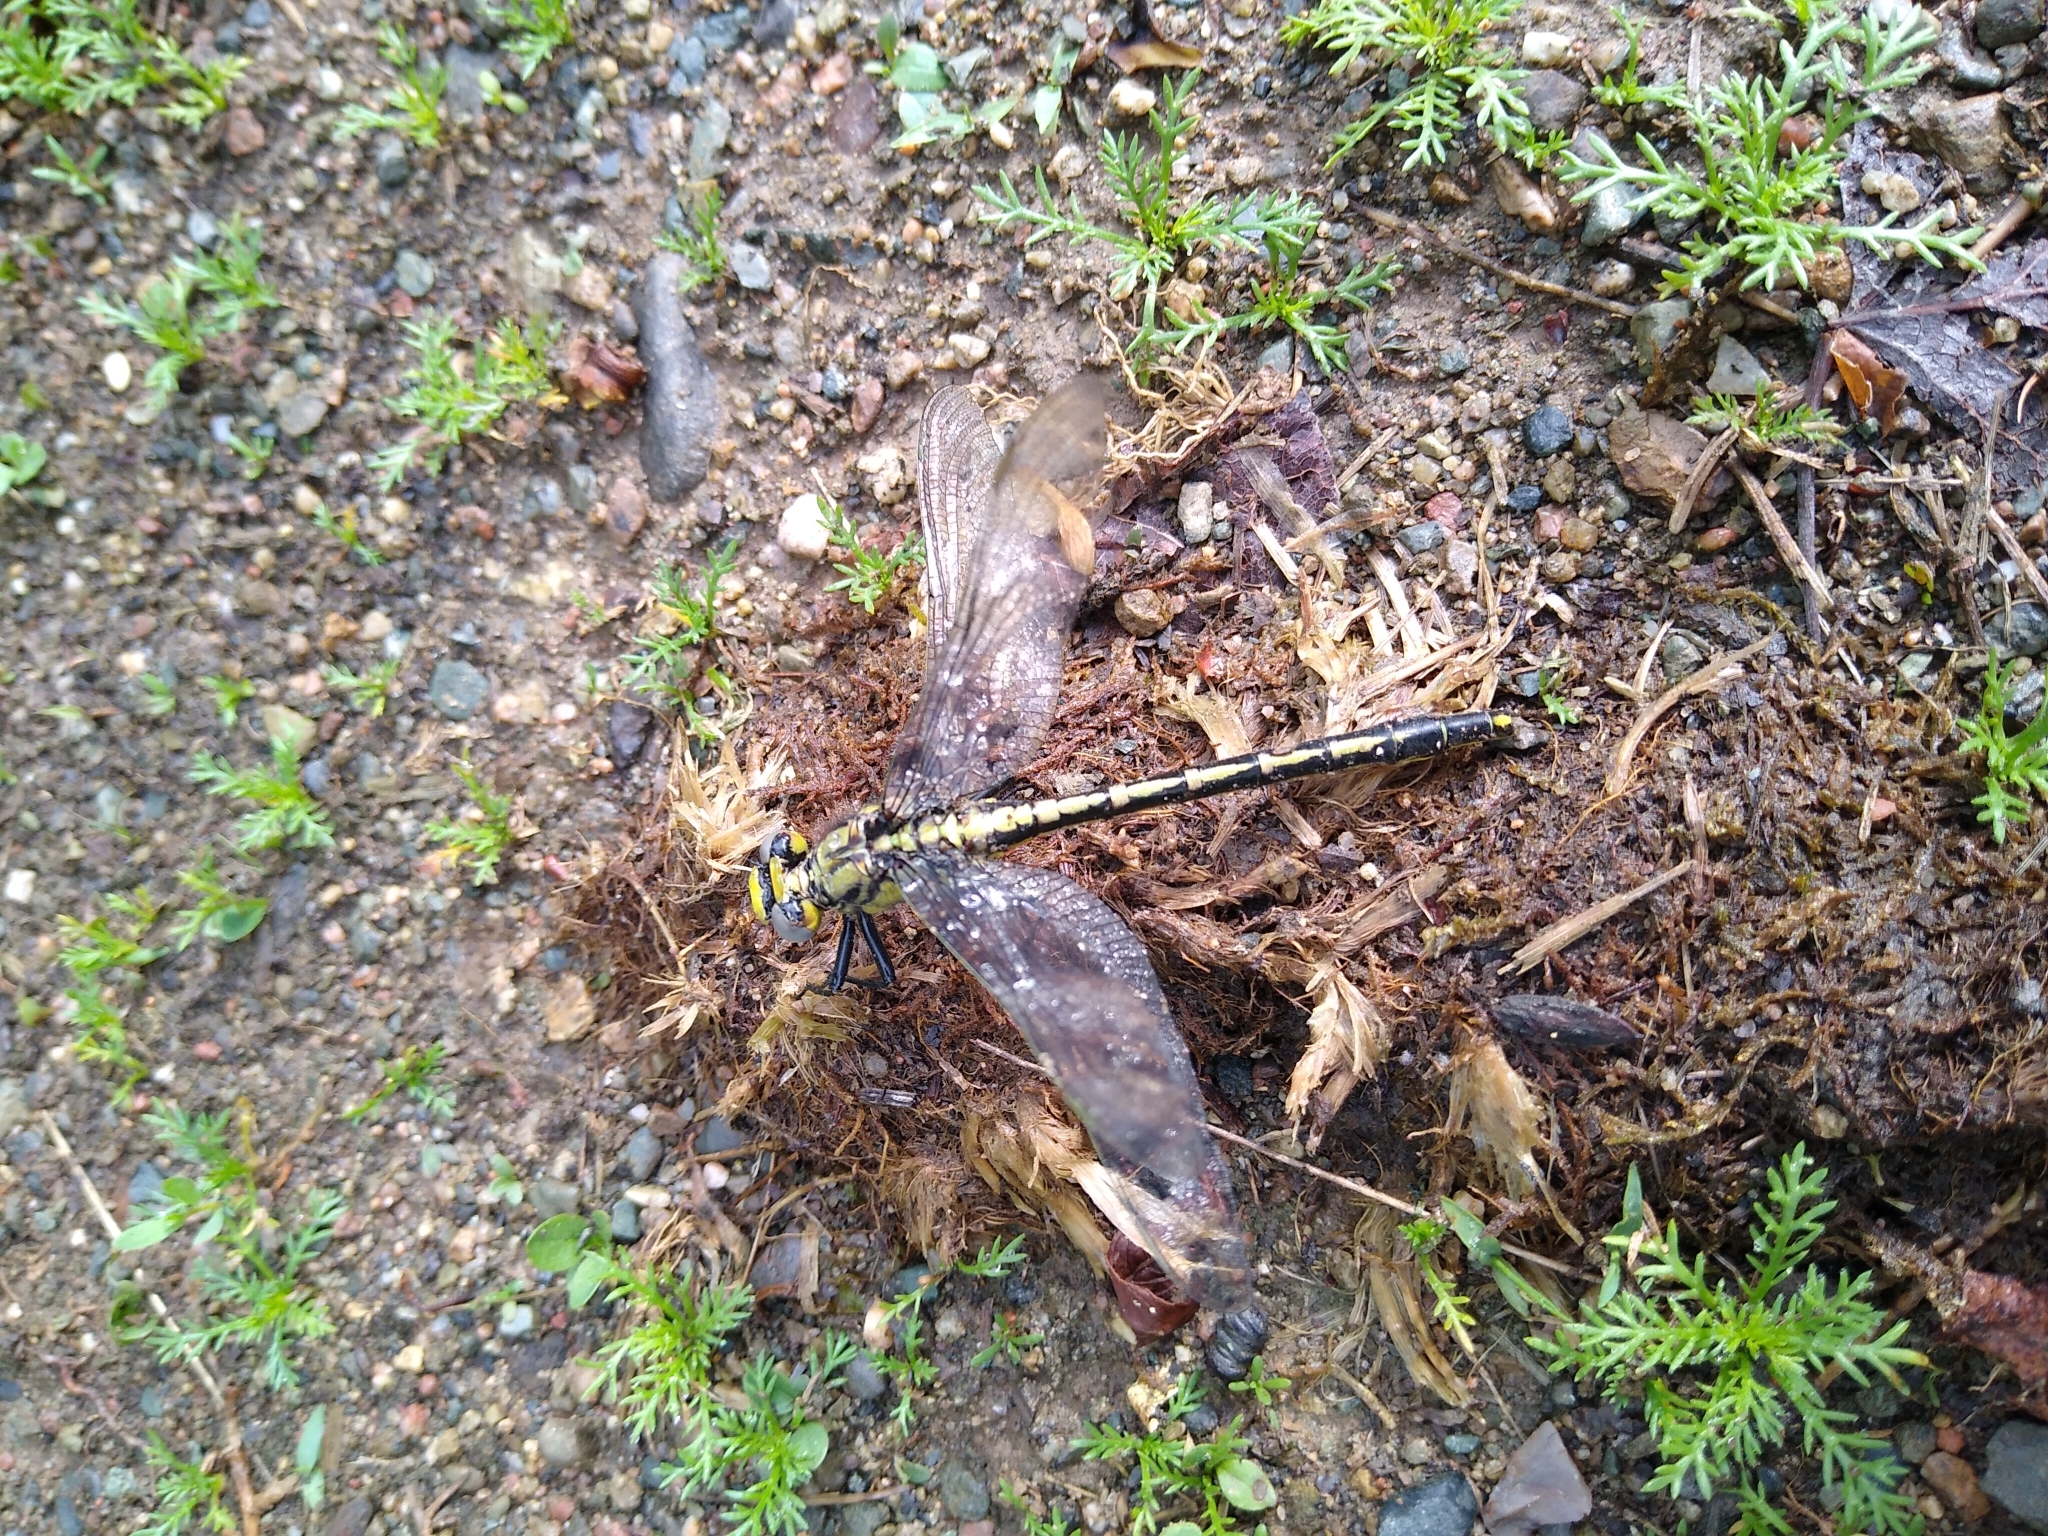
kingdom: Animalia
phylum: Arthropoda
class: Insecta
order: Odonata
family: Gomphidae
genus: Arigomphus
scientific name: Arigomphus cornutus
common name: Horned clubtail
